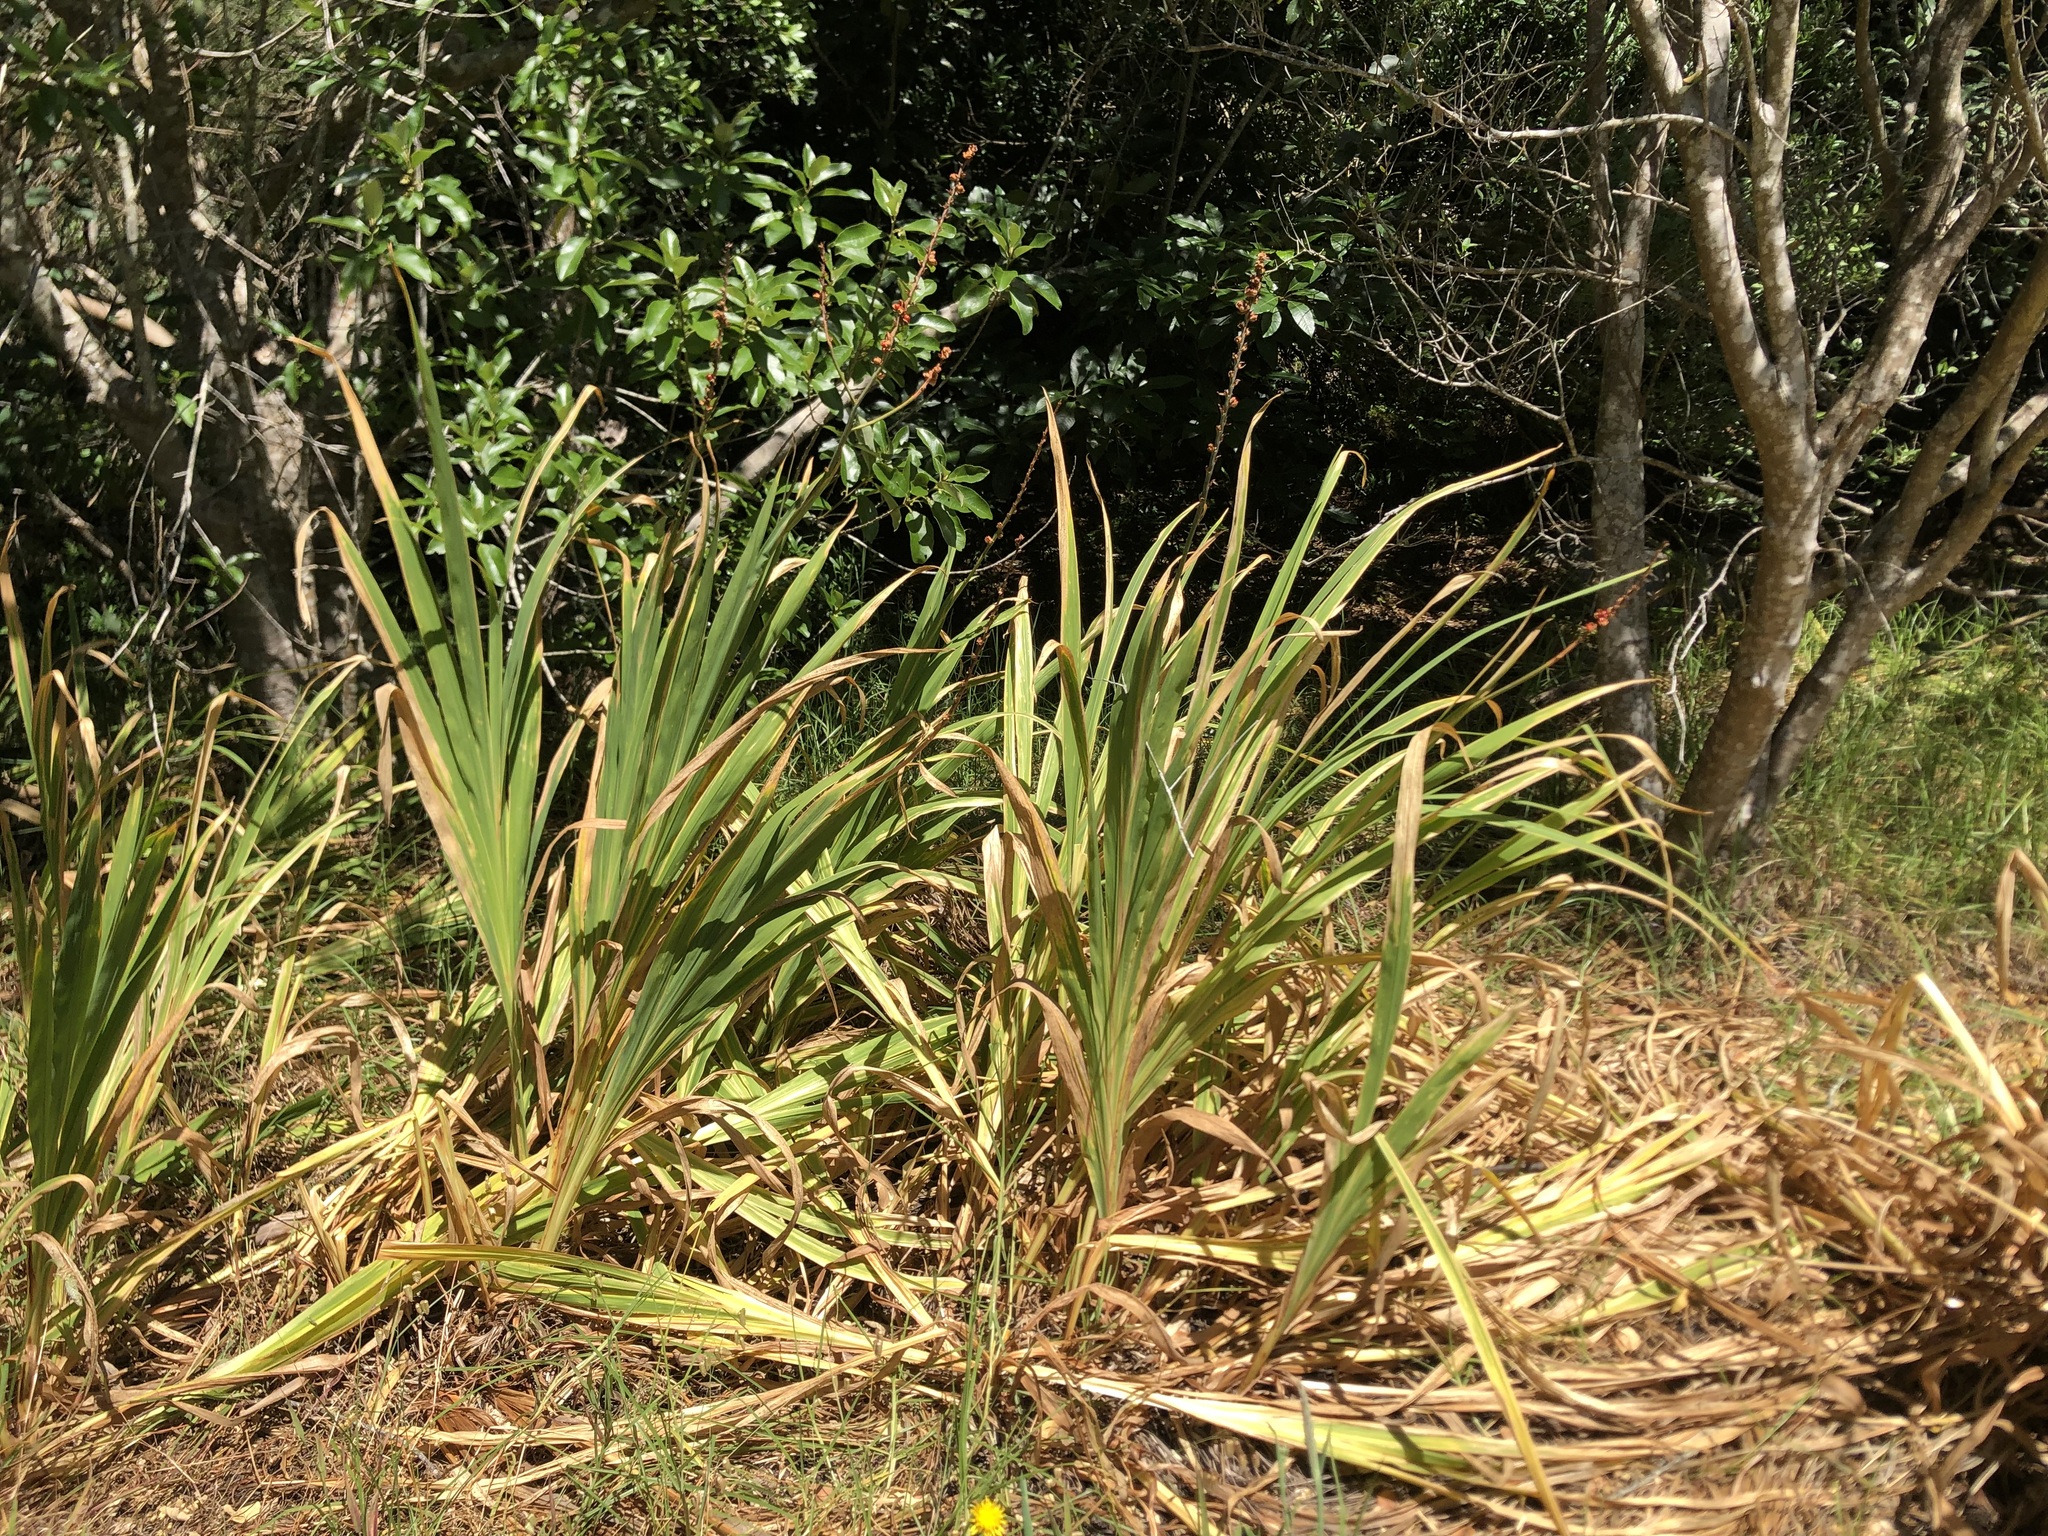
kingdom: Plantae
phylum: Tracheophyta
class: Liliopsida
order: Asparagales
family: Iridaceae
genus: Chasmanthe
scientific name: Chasmanthe floribunda
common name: African cornflag
